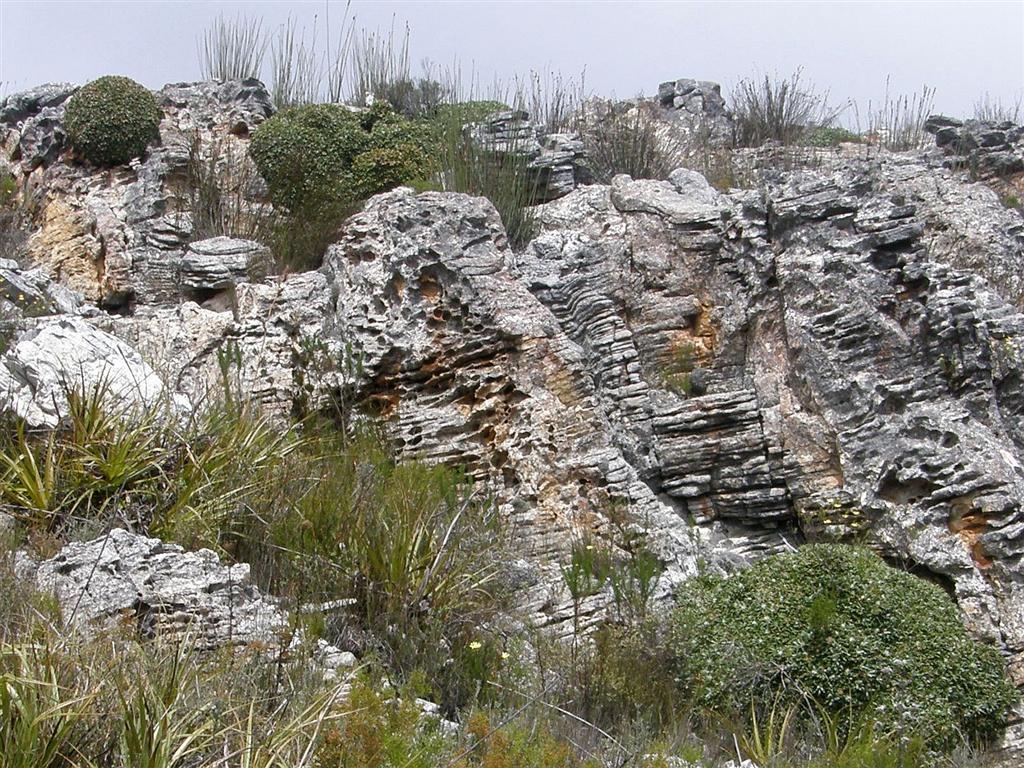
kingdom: Plantae
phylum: Tracheophyta
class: Magnoliopsida
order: Asterales
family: Asteraceae
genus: Oldenburgia
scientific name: Oldenburgia paradoxa
